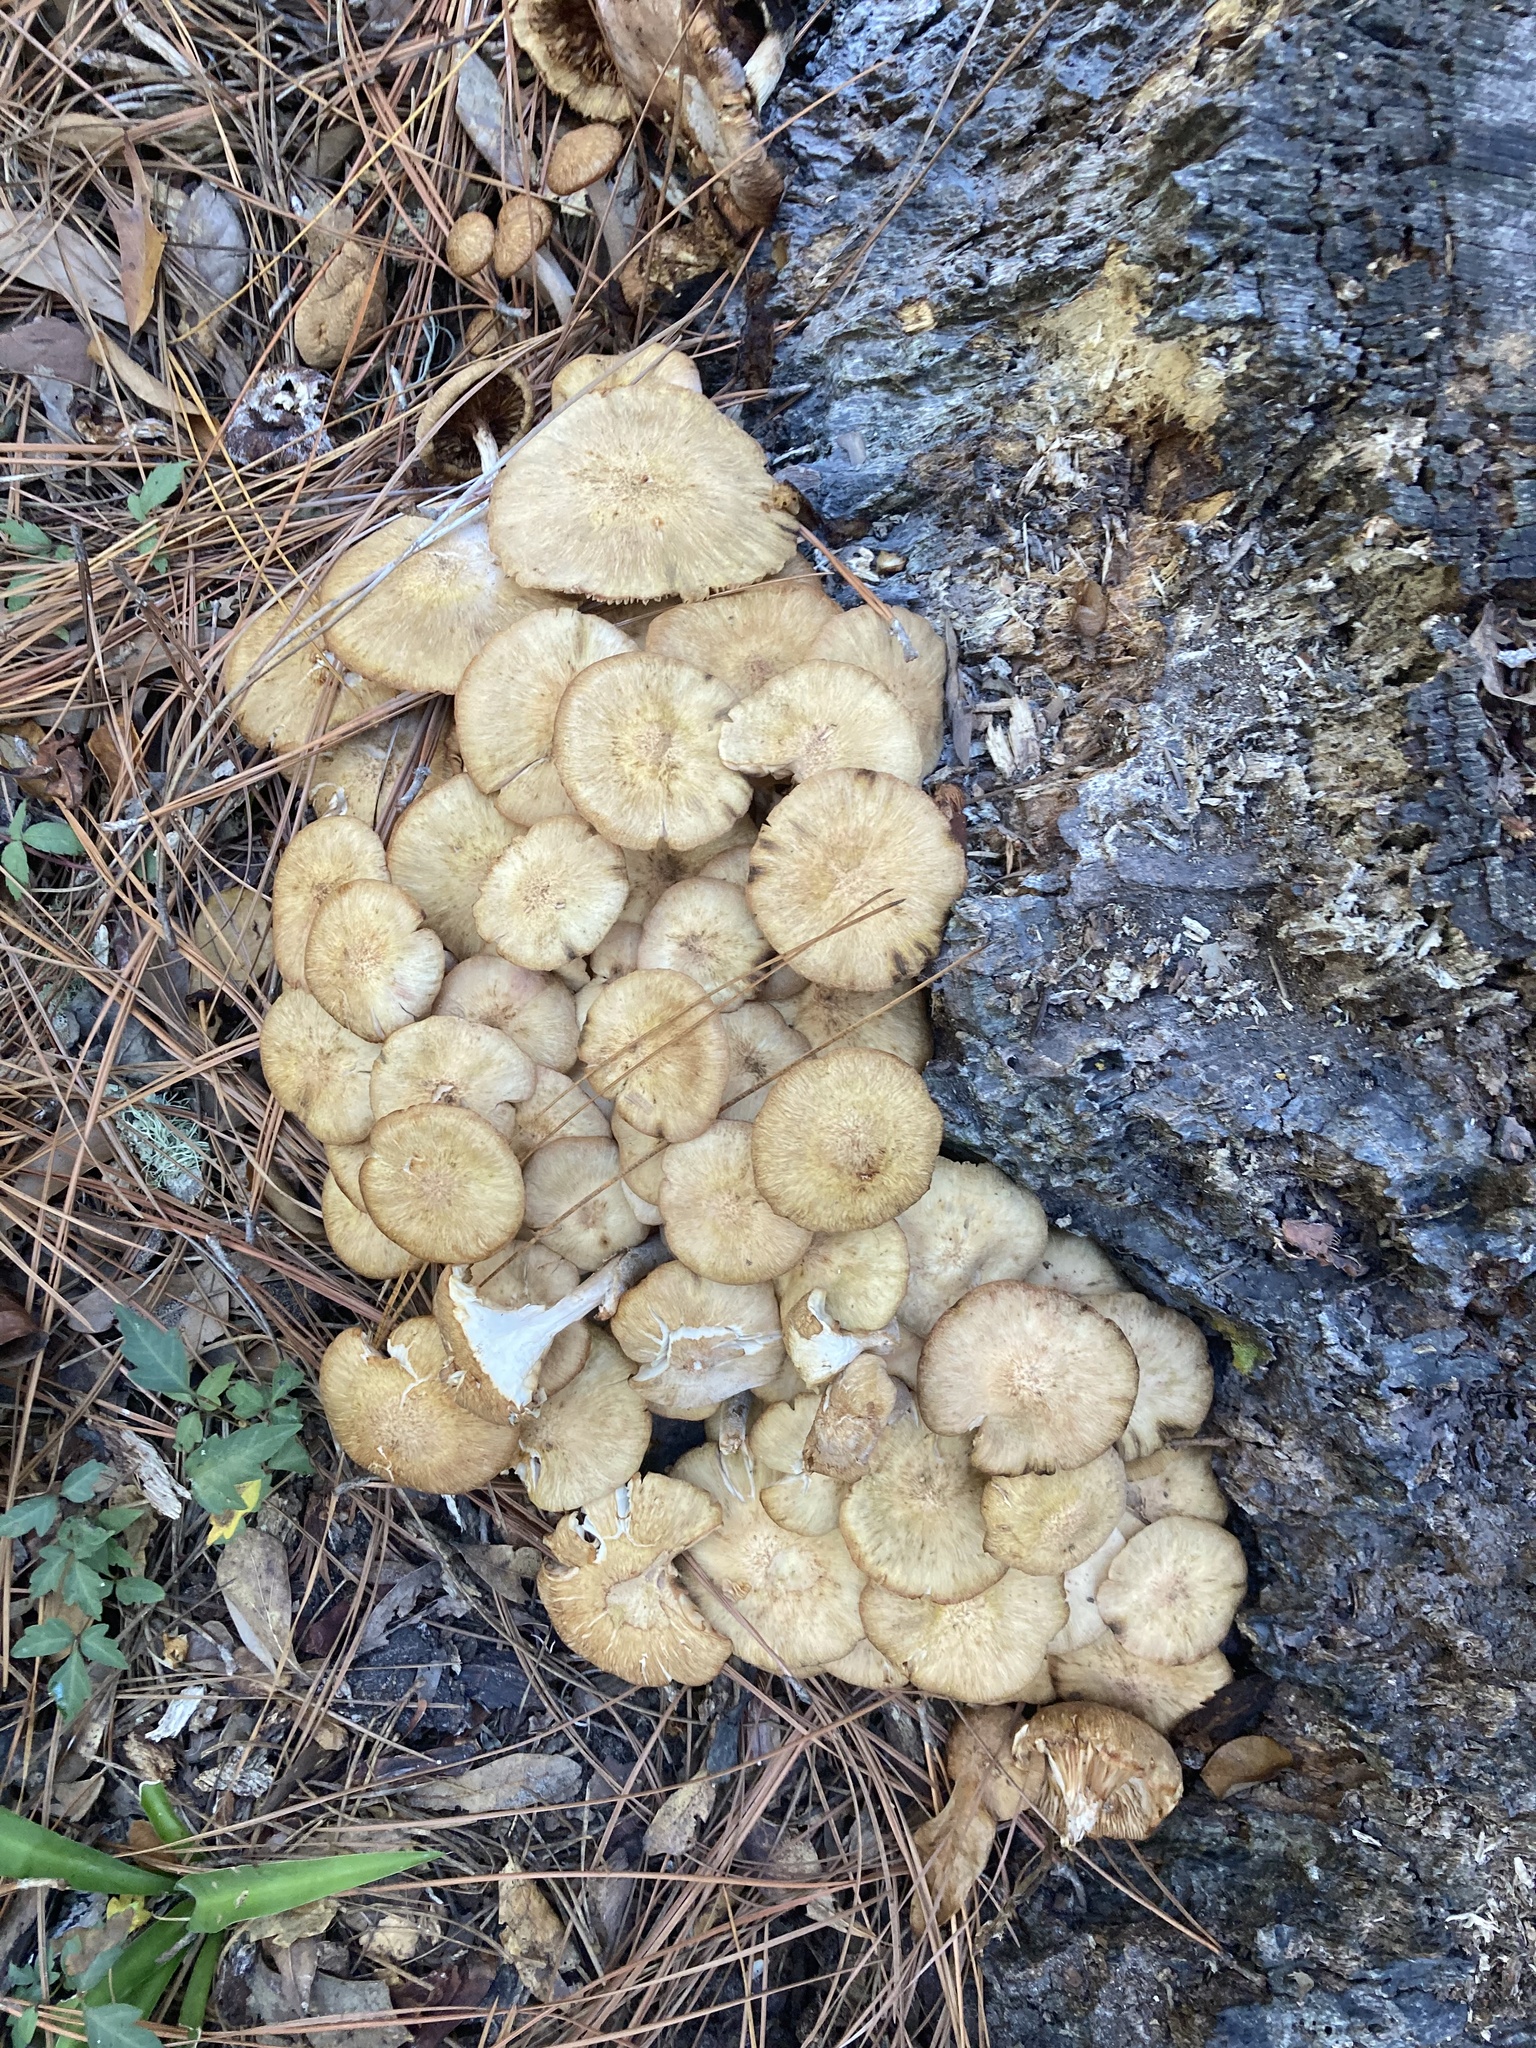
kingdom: Fungi
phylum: Basidiomycota
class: Agaricomycetes
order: Agaricales
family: Physalacriaceae
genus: Desarmillaria
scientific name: Desarmillaria caespitosa
